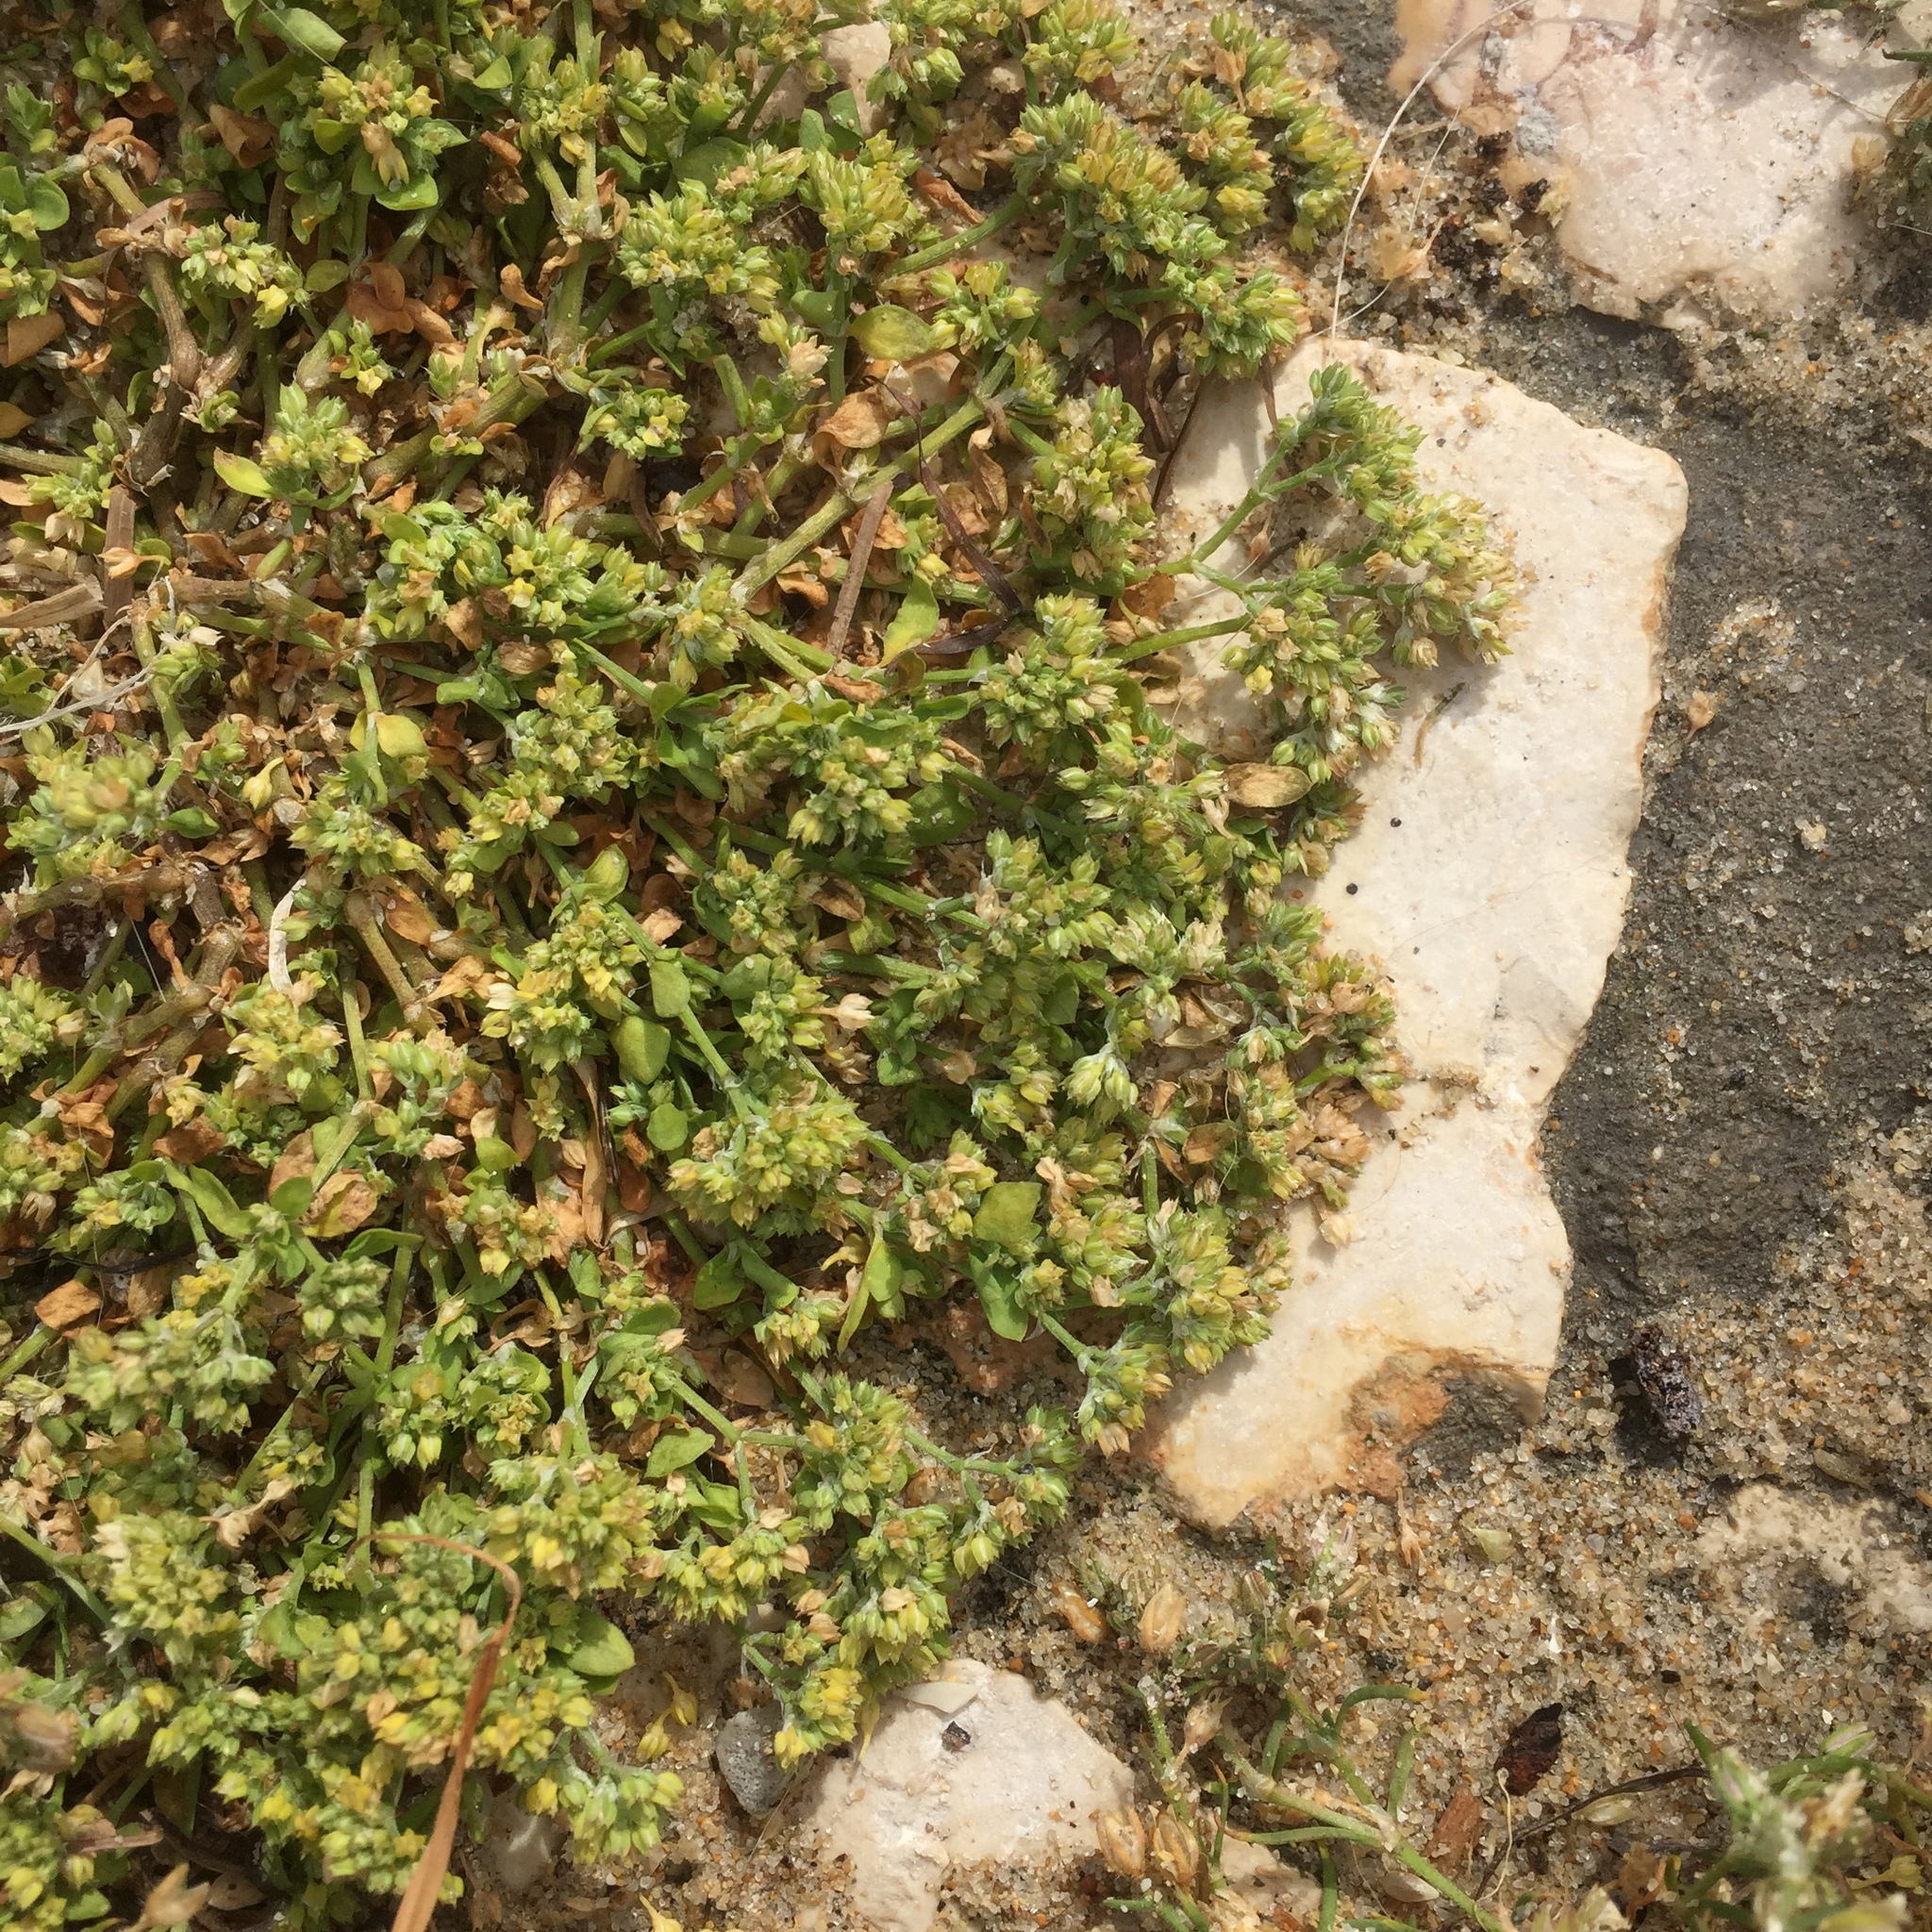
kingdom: Plantae
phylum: Tracheophyta
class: Magnoliopsida
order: Caryophyllales
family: Caryophyllaceae
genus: Polycarpon
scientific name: Polycarpon tetraphyllum
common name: Four-leaved all-seed
